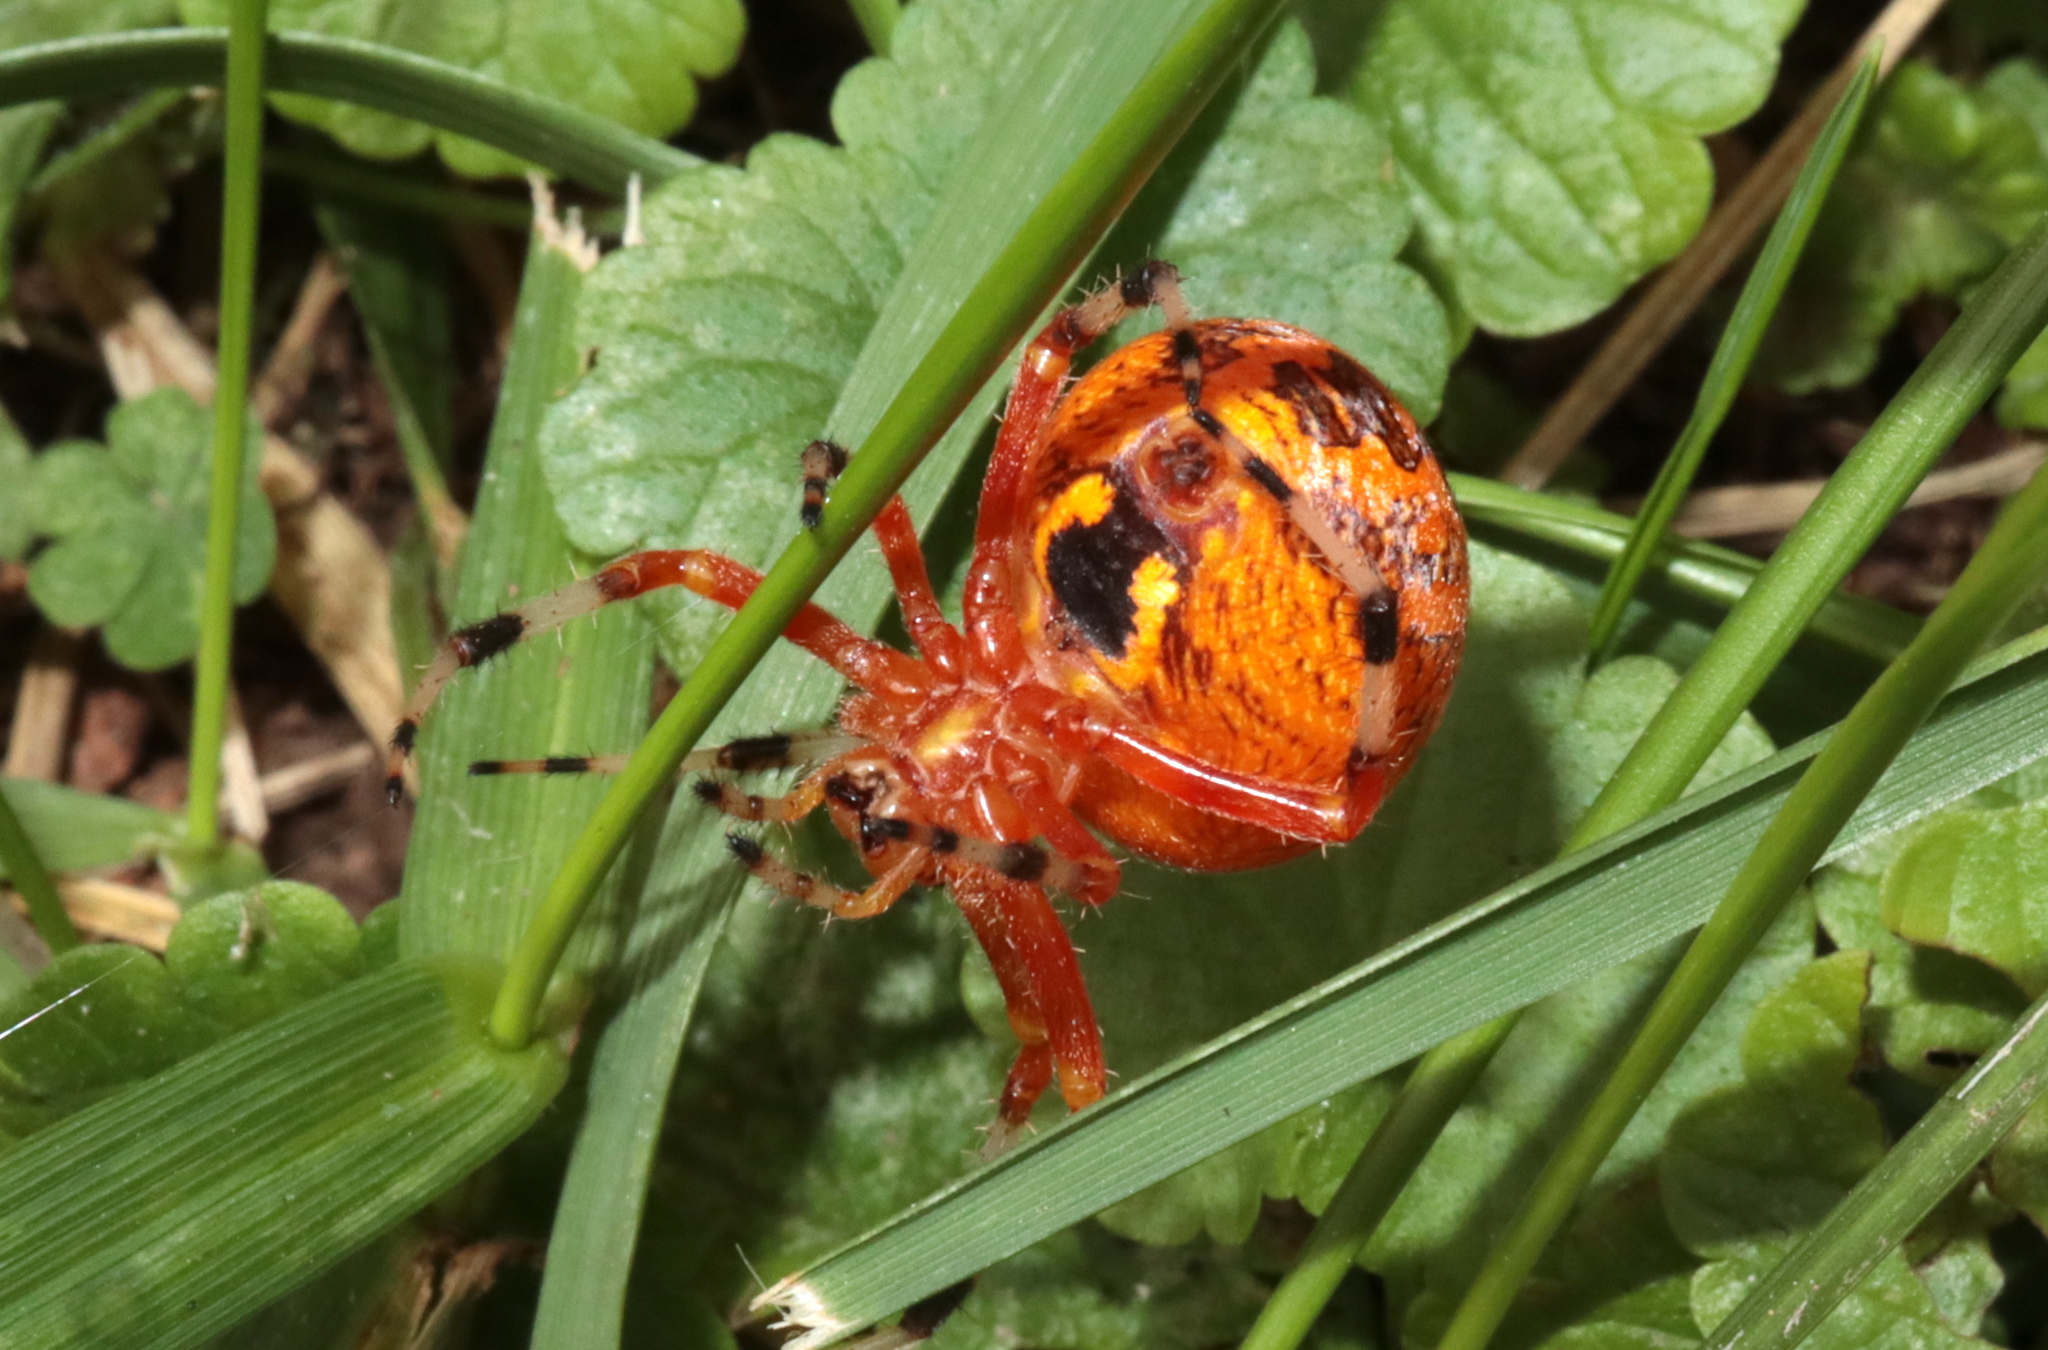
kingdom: Animalia
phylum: Arthropoda
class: Arachnida
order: Araneae
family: Araneidae
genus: Araneus
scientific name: Araneus marmoreus
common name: Marbled orbweaver
